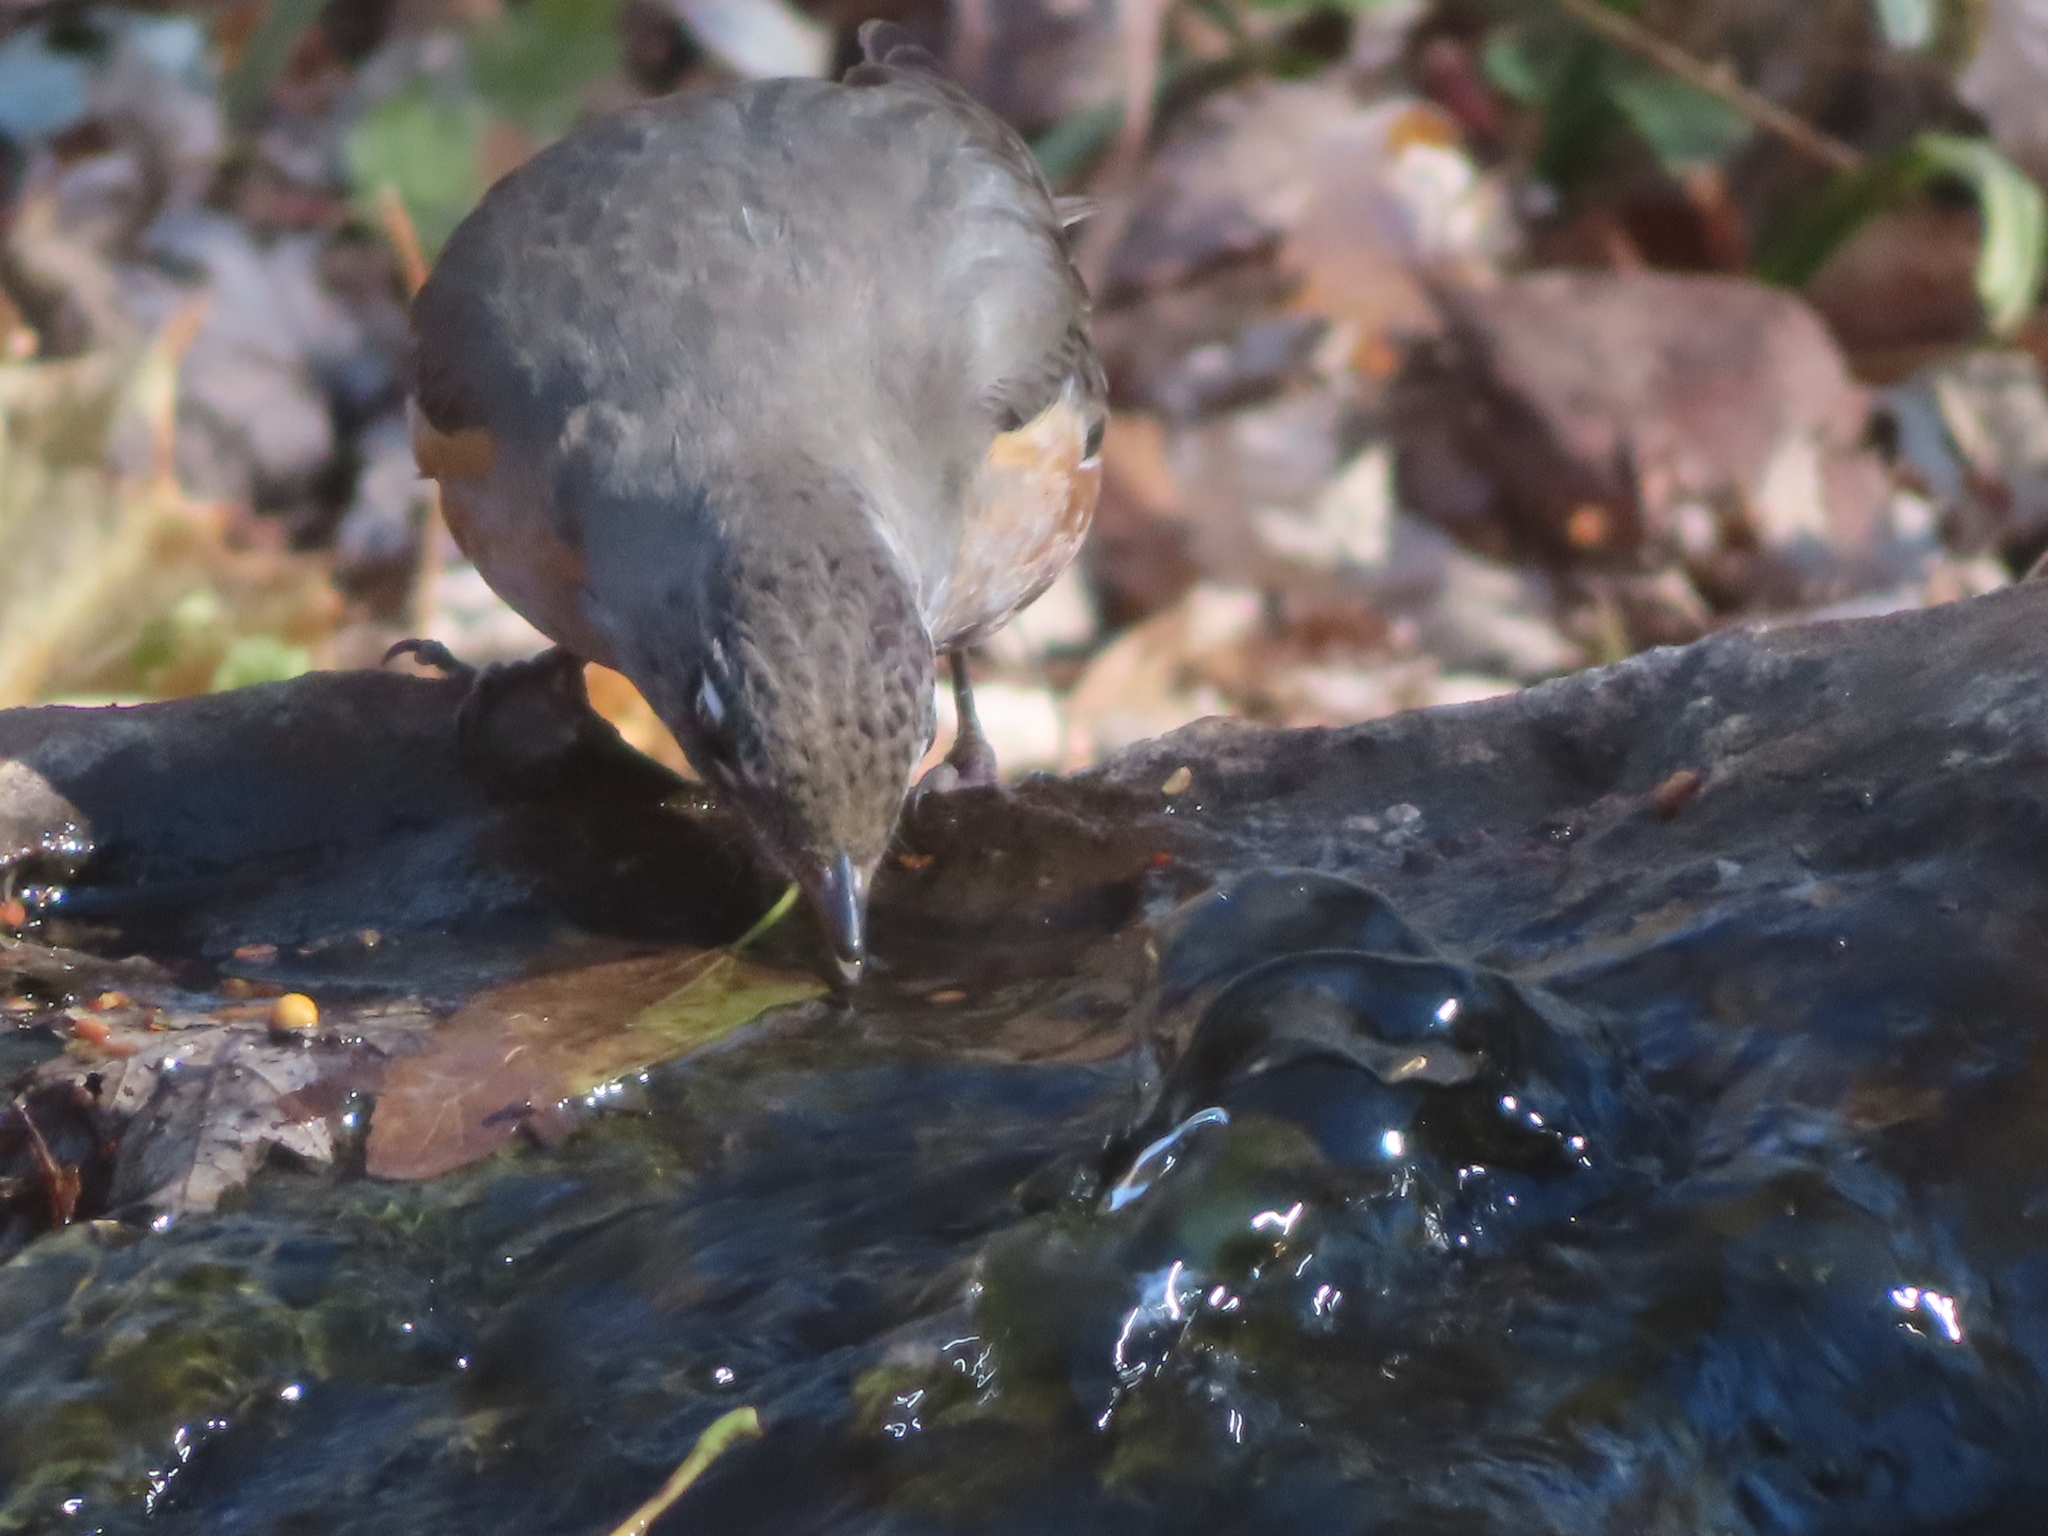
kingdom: Animalia
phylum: Chordata
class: Aves
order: Passeriformes
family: Turdidae
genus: Turdus
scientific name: Turdus migratorius
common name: American robin
